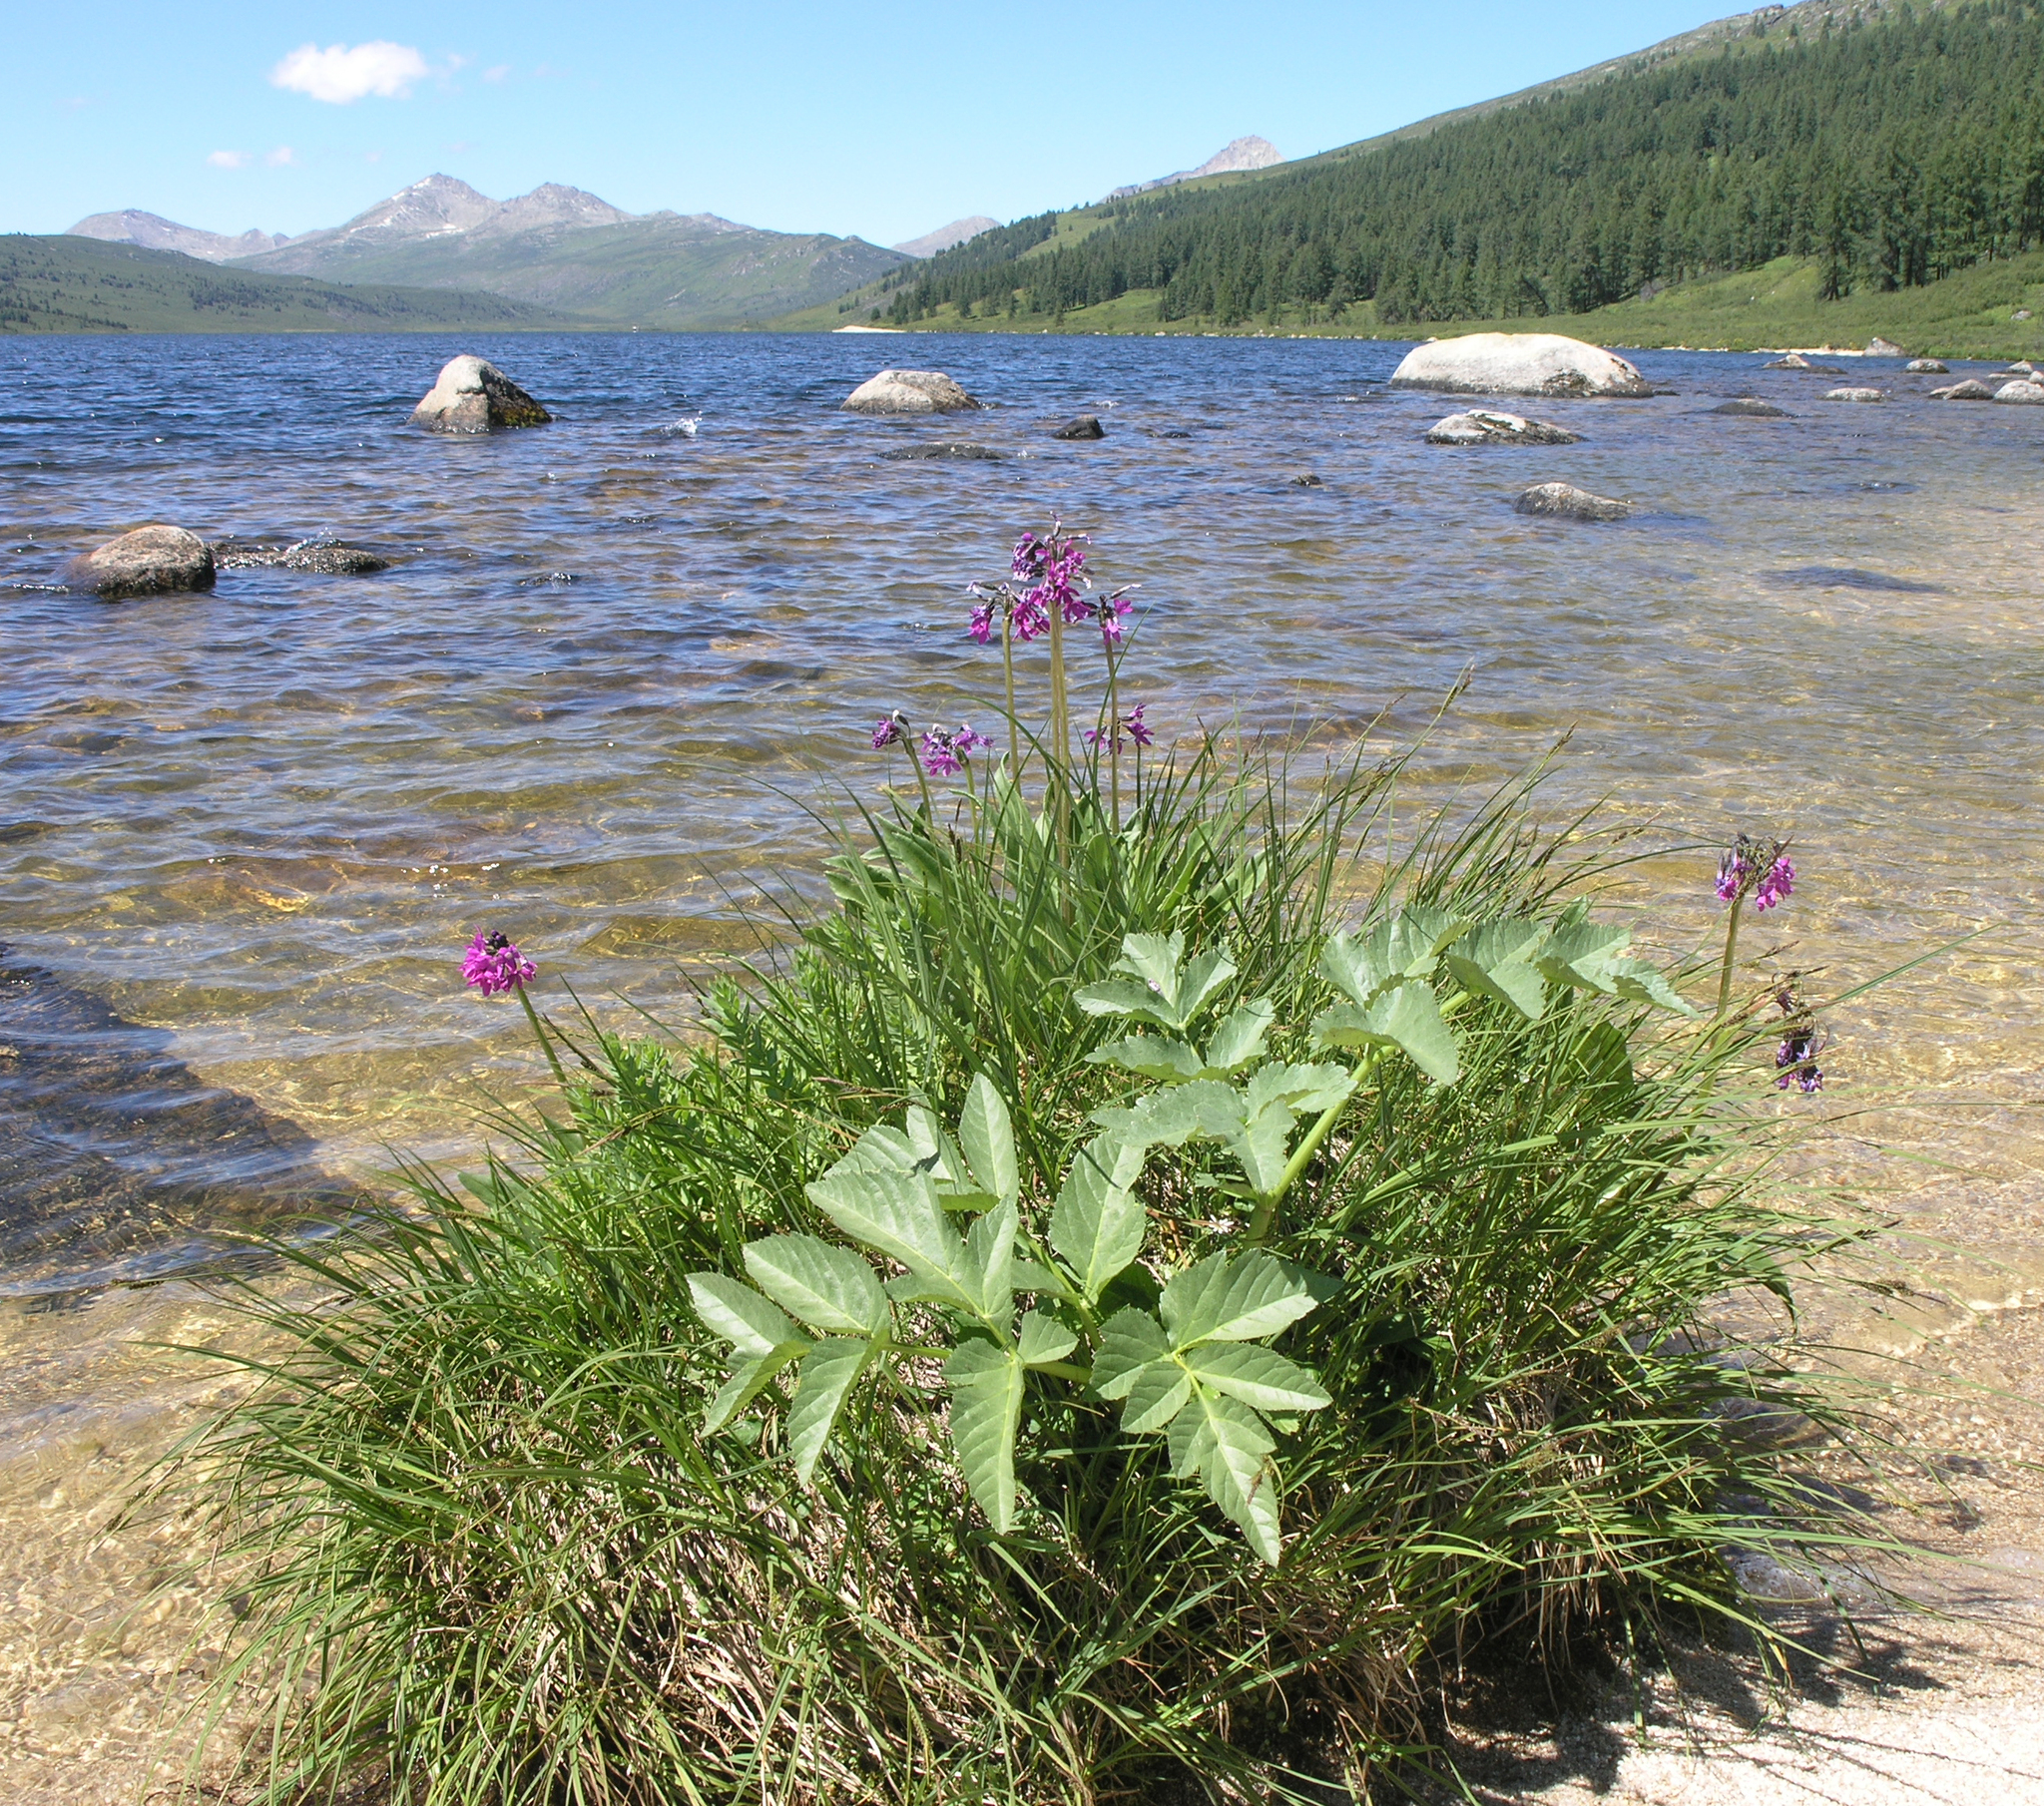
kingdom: Plantae
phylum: Tracheophyta
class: Magnoliopsida
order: Ericales
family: Primulaceae
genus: Primula
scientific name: Primula nivalis
